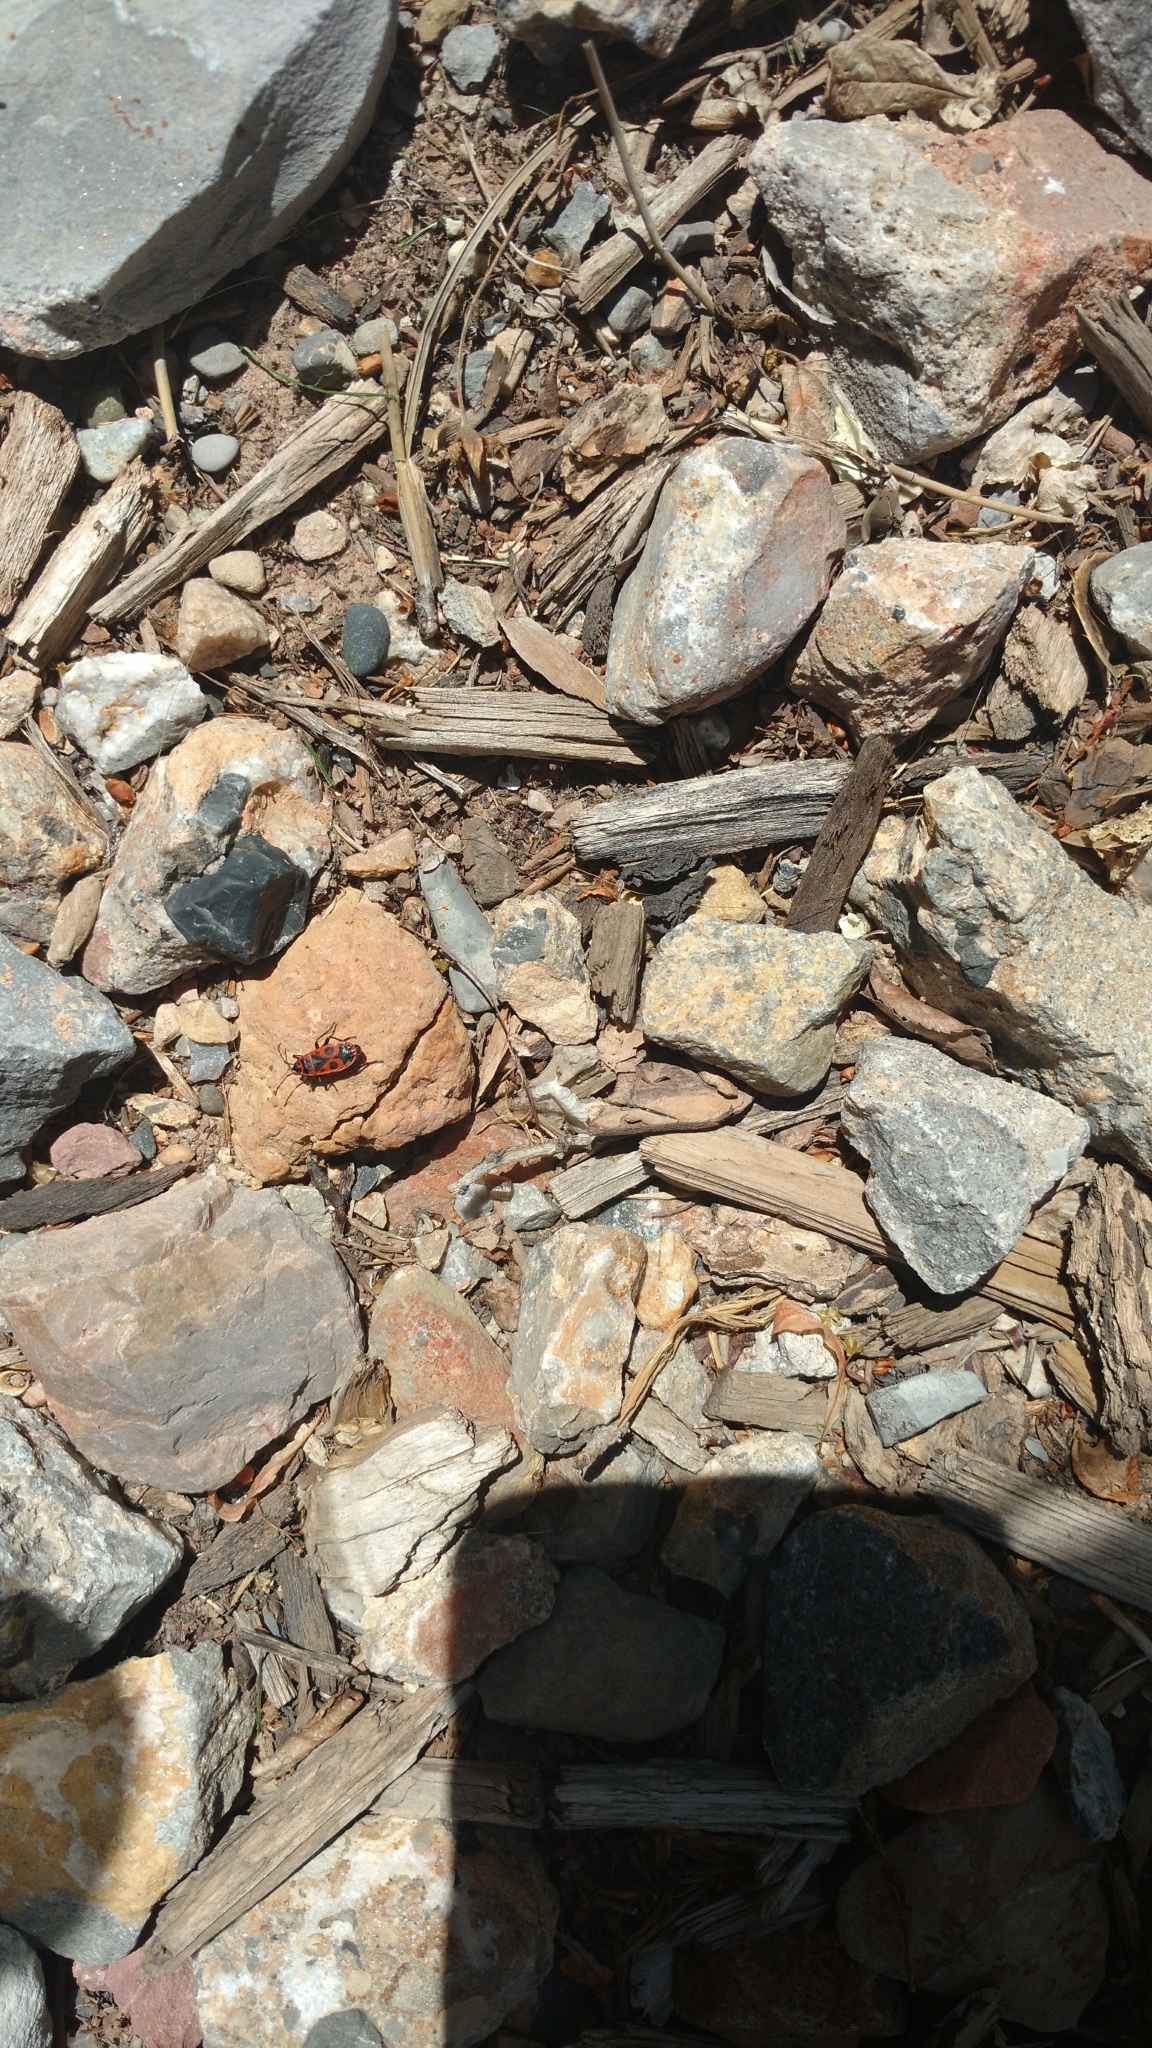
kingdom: Animalia
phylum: Arthropoda
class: Insecta
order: Hemiptera
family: Pyrrhocoridae
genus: Pyrrhocoris
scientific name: Pyrrhocoris apterus
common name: Firebug
